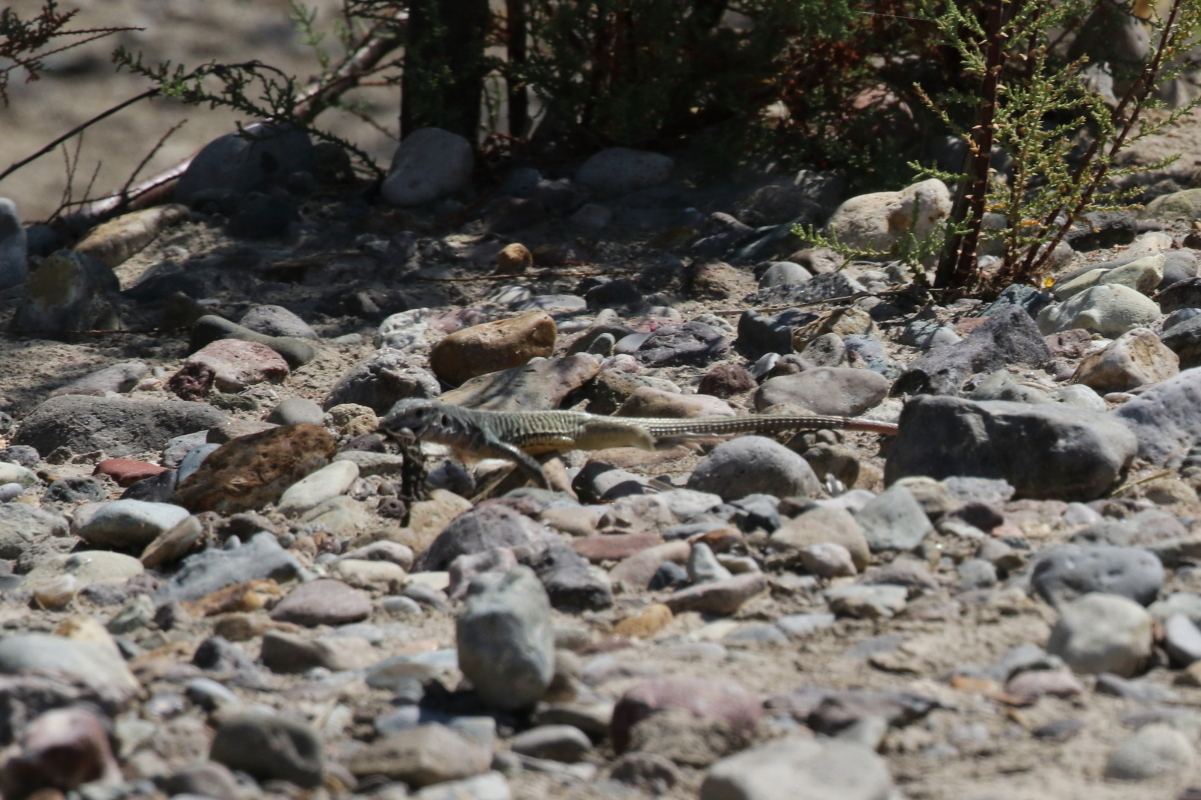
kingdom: Animalia
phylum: Chordata
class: Squamata
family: Teiidae
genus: Aspidoscelis
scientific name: Aspidoscelis marmoratus
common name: Eastern marbled whiptail [reticuloriens]
